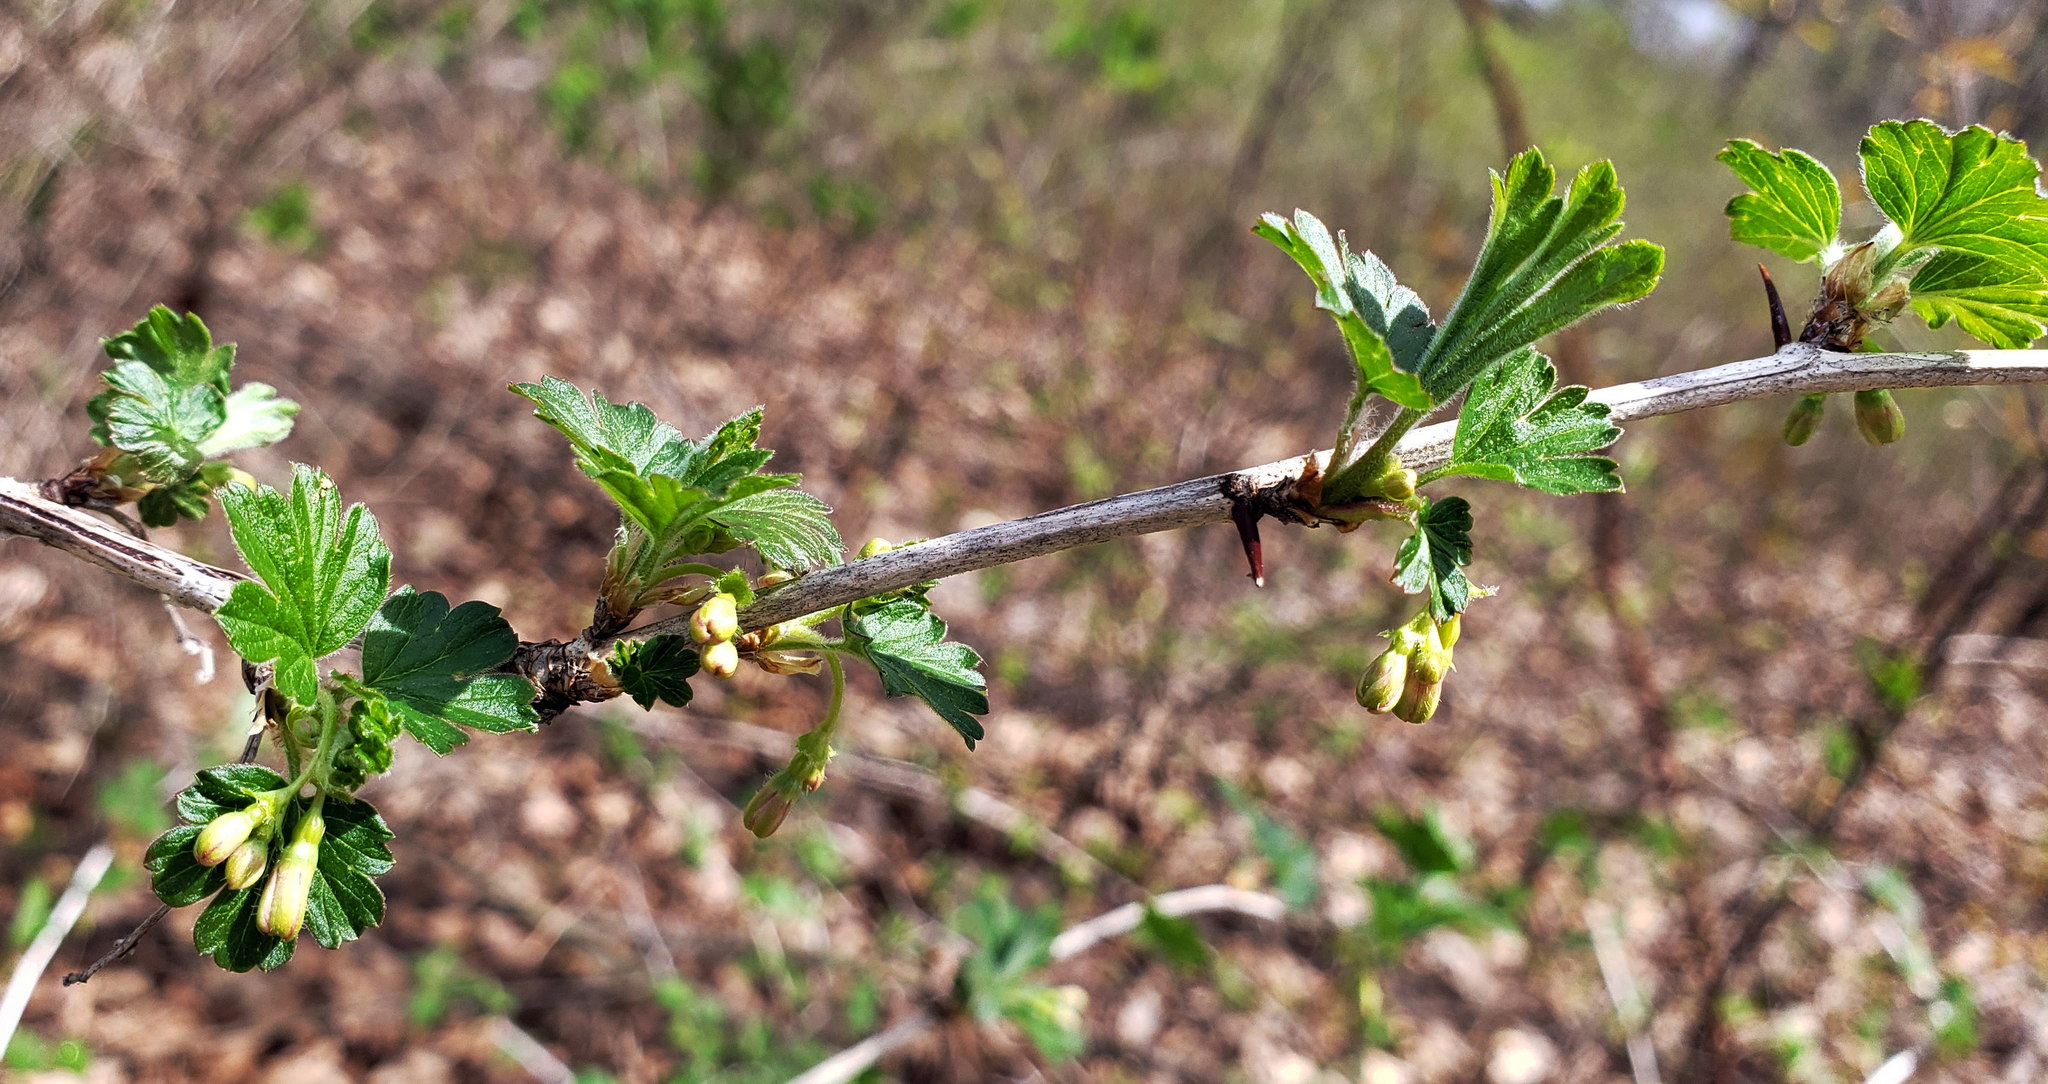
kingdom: Plantae
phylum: Tracheophyta
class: Magnoliopsida
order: Saxifragales
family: Grossulariaceae
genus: Ribes
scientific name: Ribes missouriense
